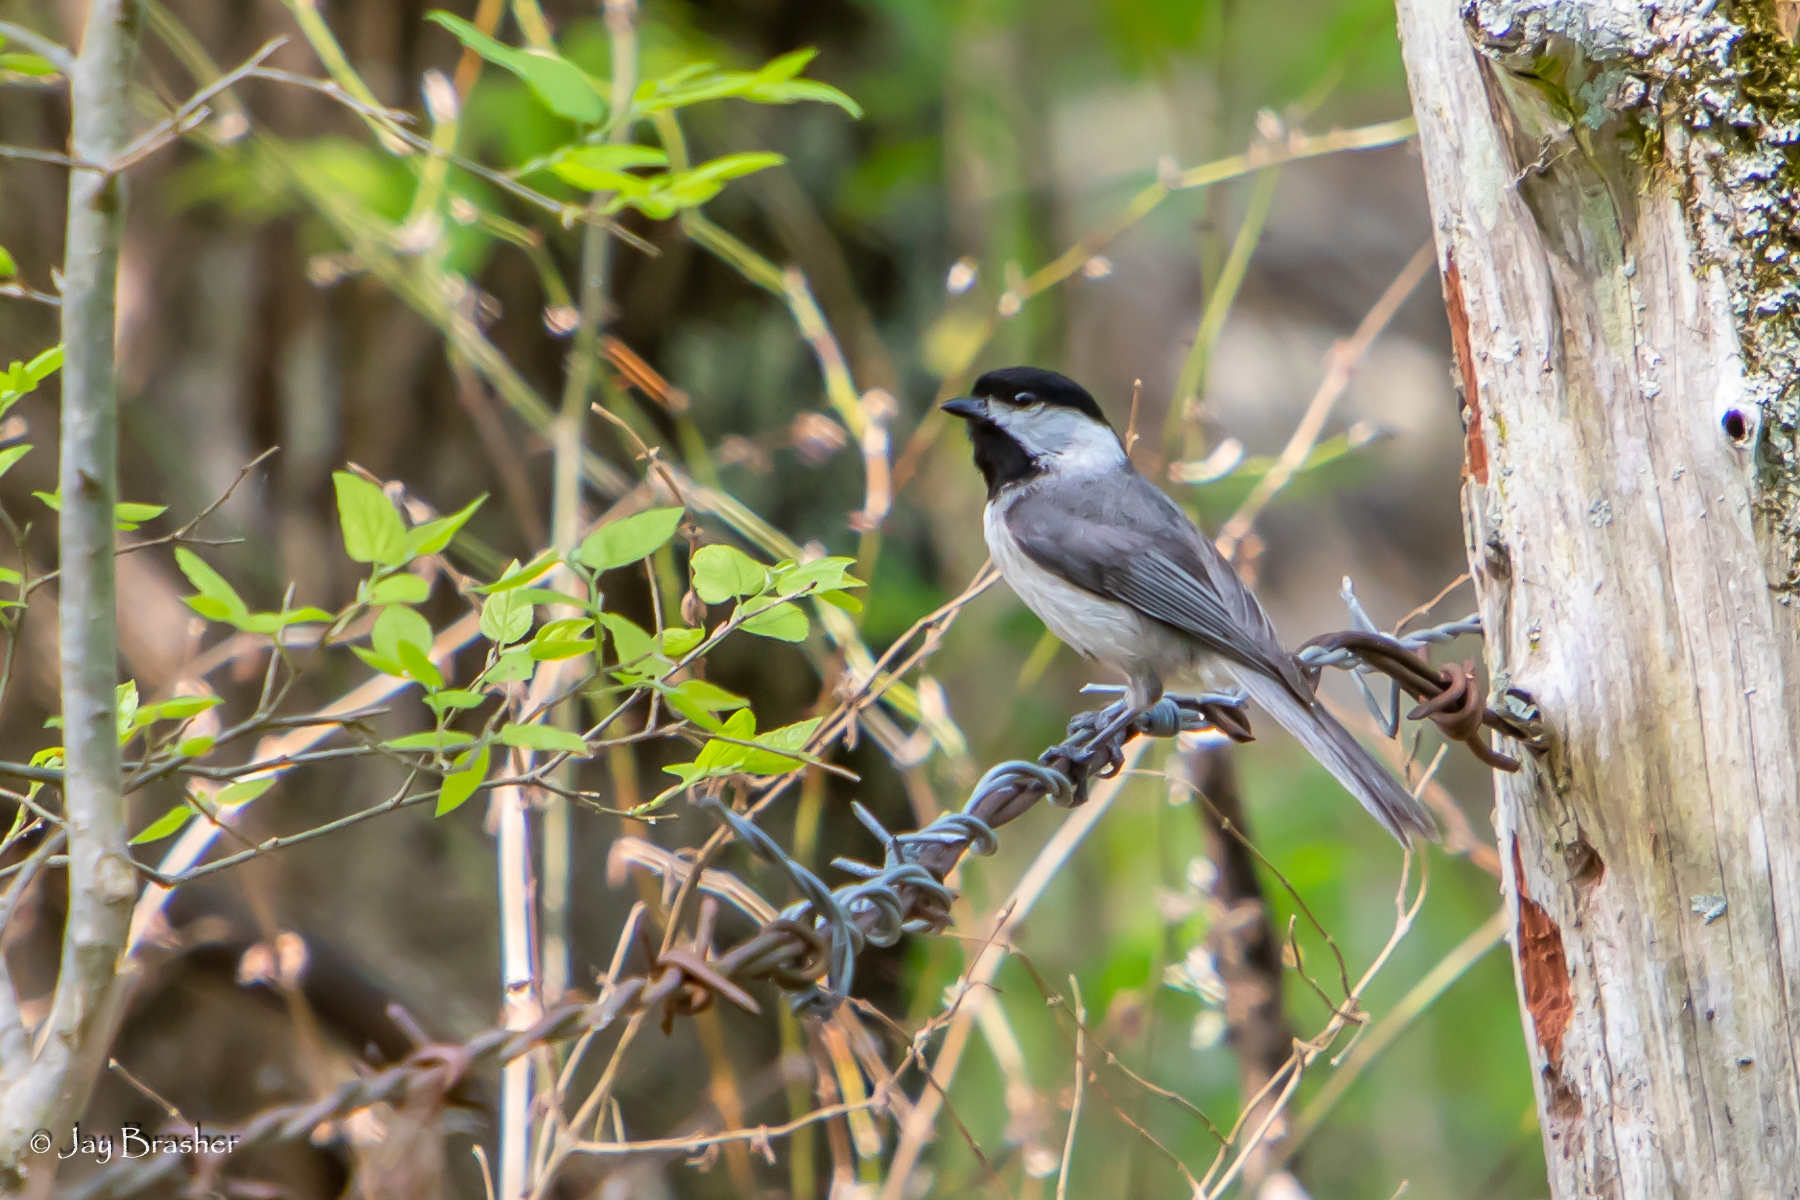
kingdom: Animalia
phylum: Chordata
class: Aves
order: Passeriformes
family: Paridae
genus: Poecile
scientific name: Poecile carolinensis
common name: Carolina chickadee
